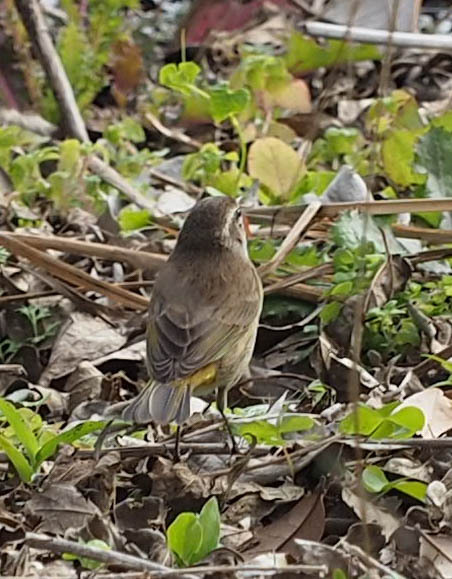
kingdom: Animalia
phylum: Chordata
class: Aves
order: Passeriformes
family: Parulidae
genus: Setophaga
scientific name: Setophaga palmarum
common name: Palm warbler
